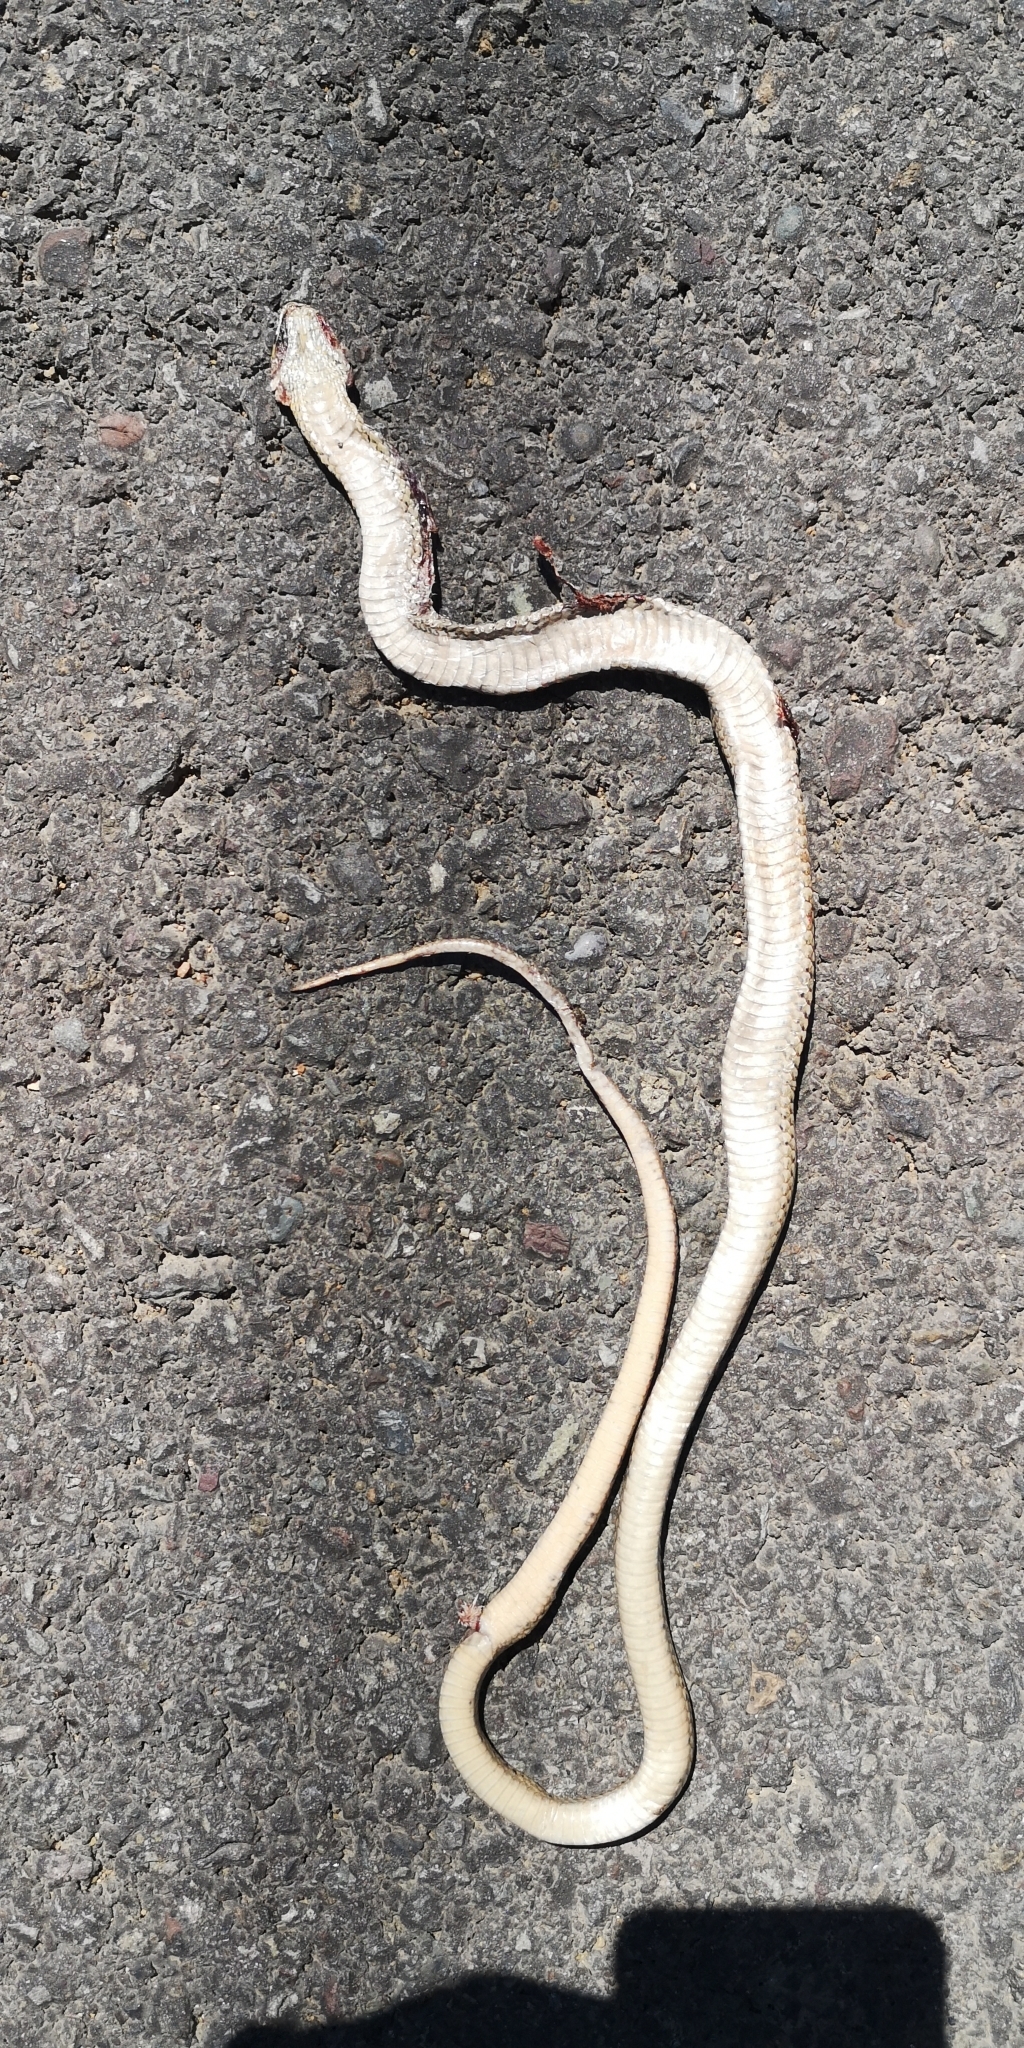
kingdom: Animalia
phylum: Chordata
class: Squamata
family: Colubridae
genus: Philodryas
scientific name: Philodryas chamissonis
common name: Chilean green racer
